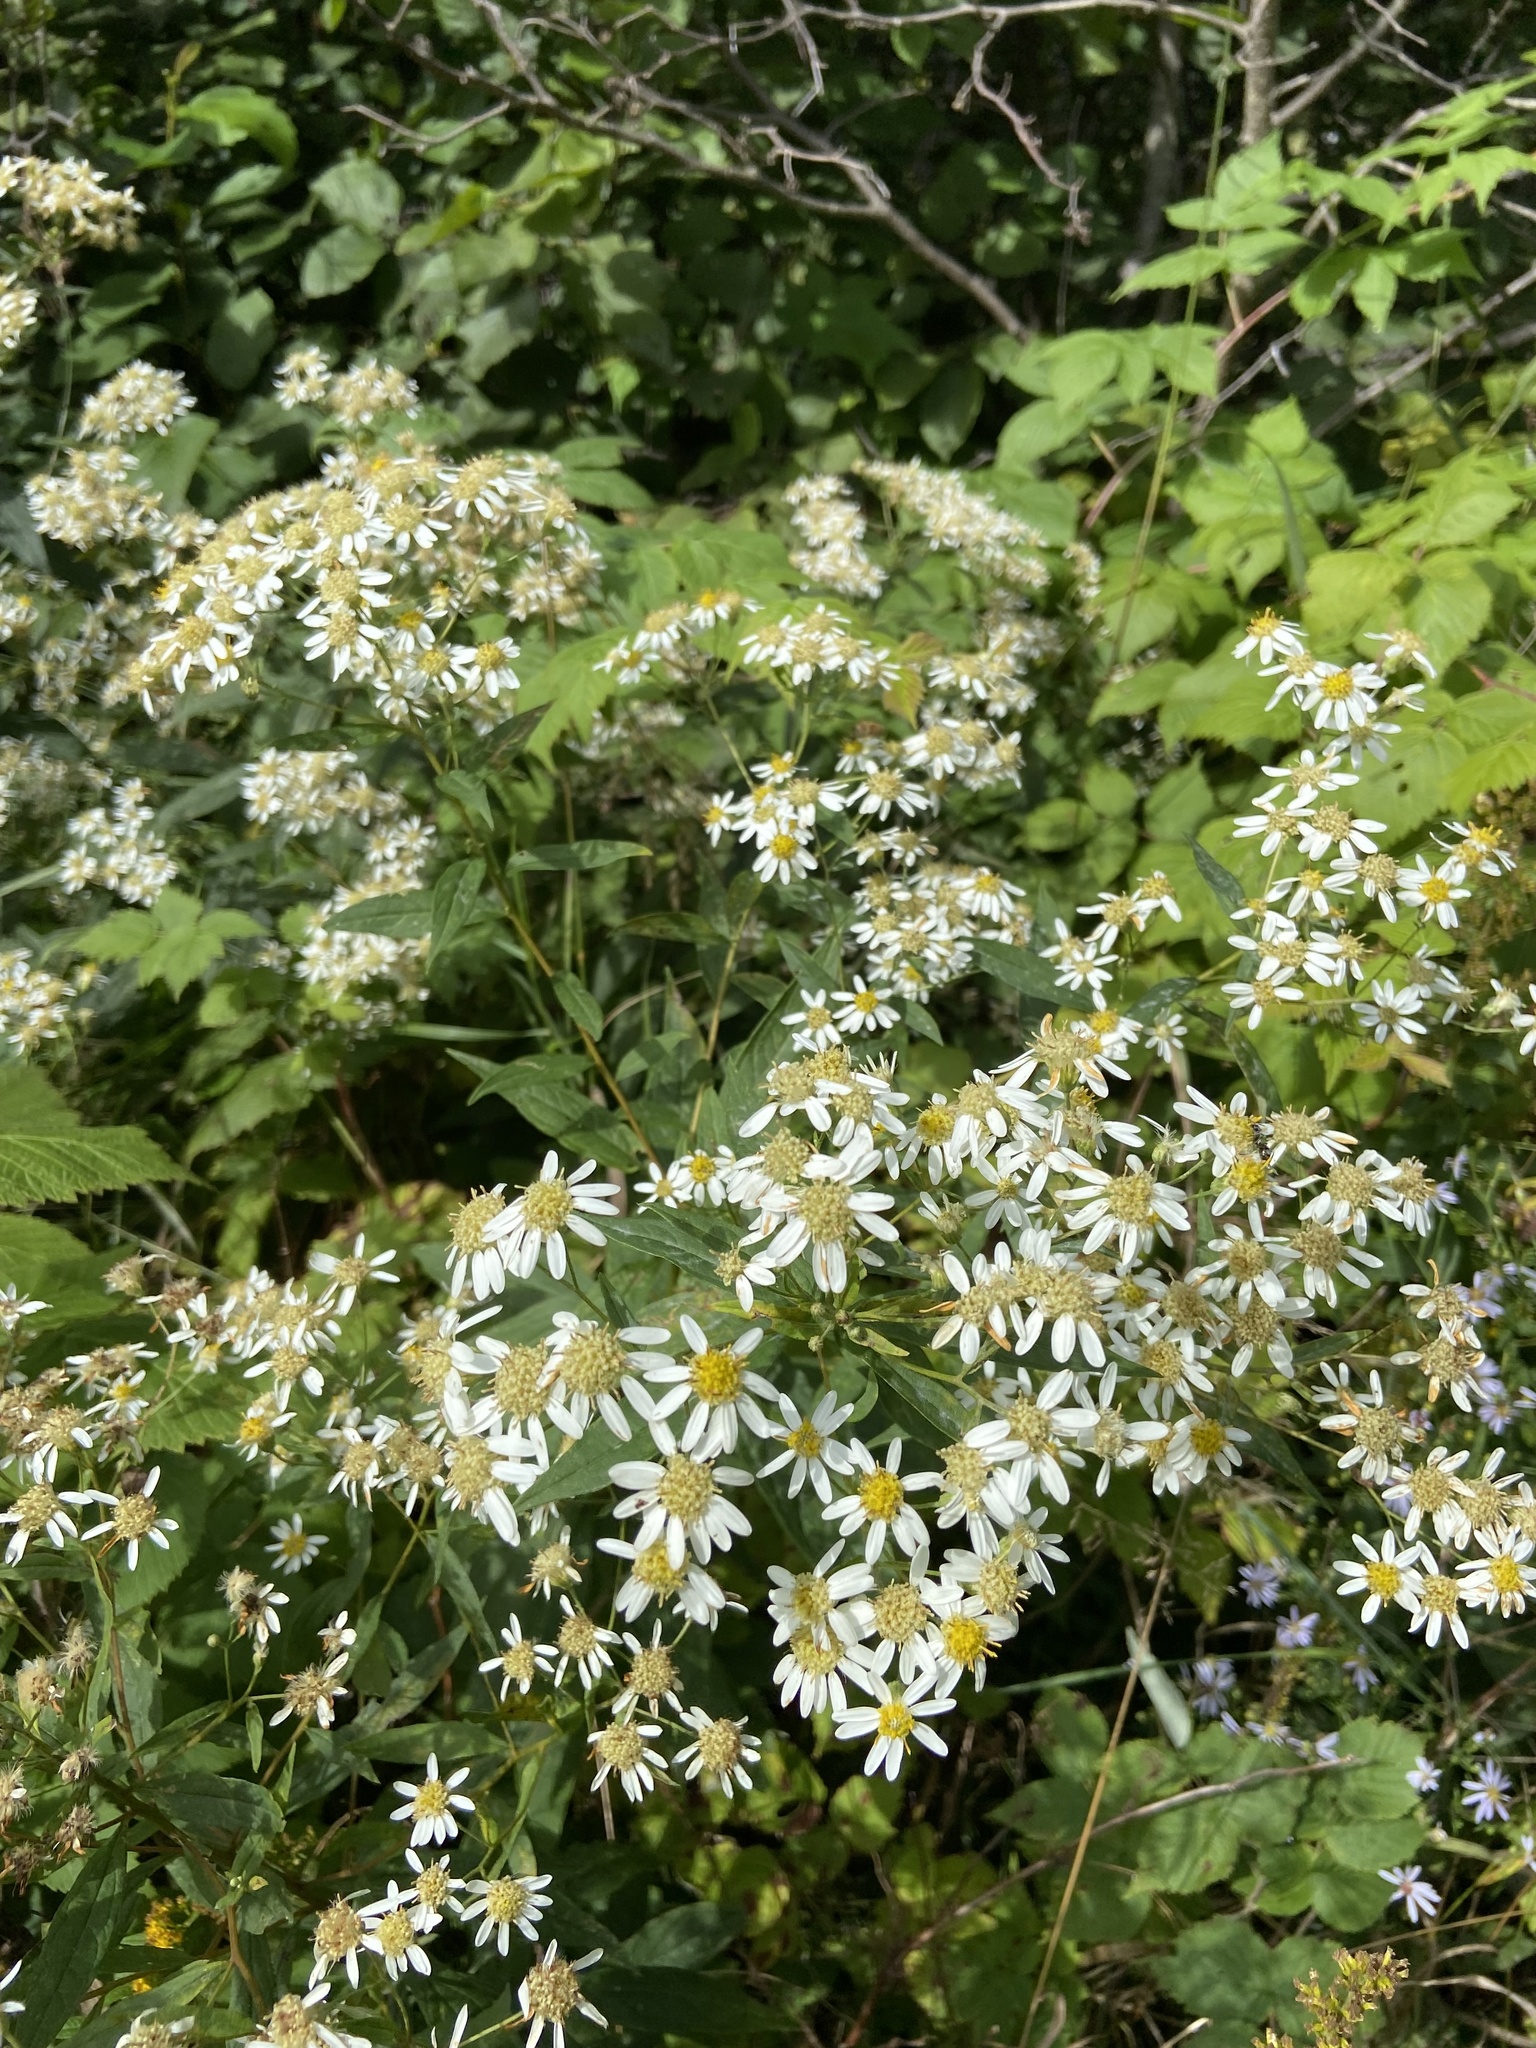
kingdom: Plantae
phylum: Tracheophyta
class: Magnoliopsida
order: Asterales
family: Asteraceae
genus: Doellingeria
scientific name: Doellingeria umbellata
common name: Flat-top white aster
